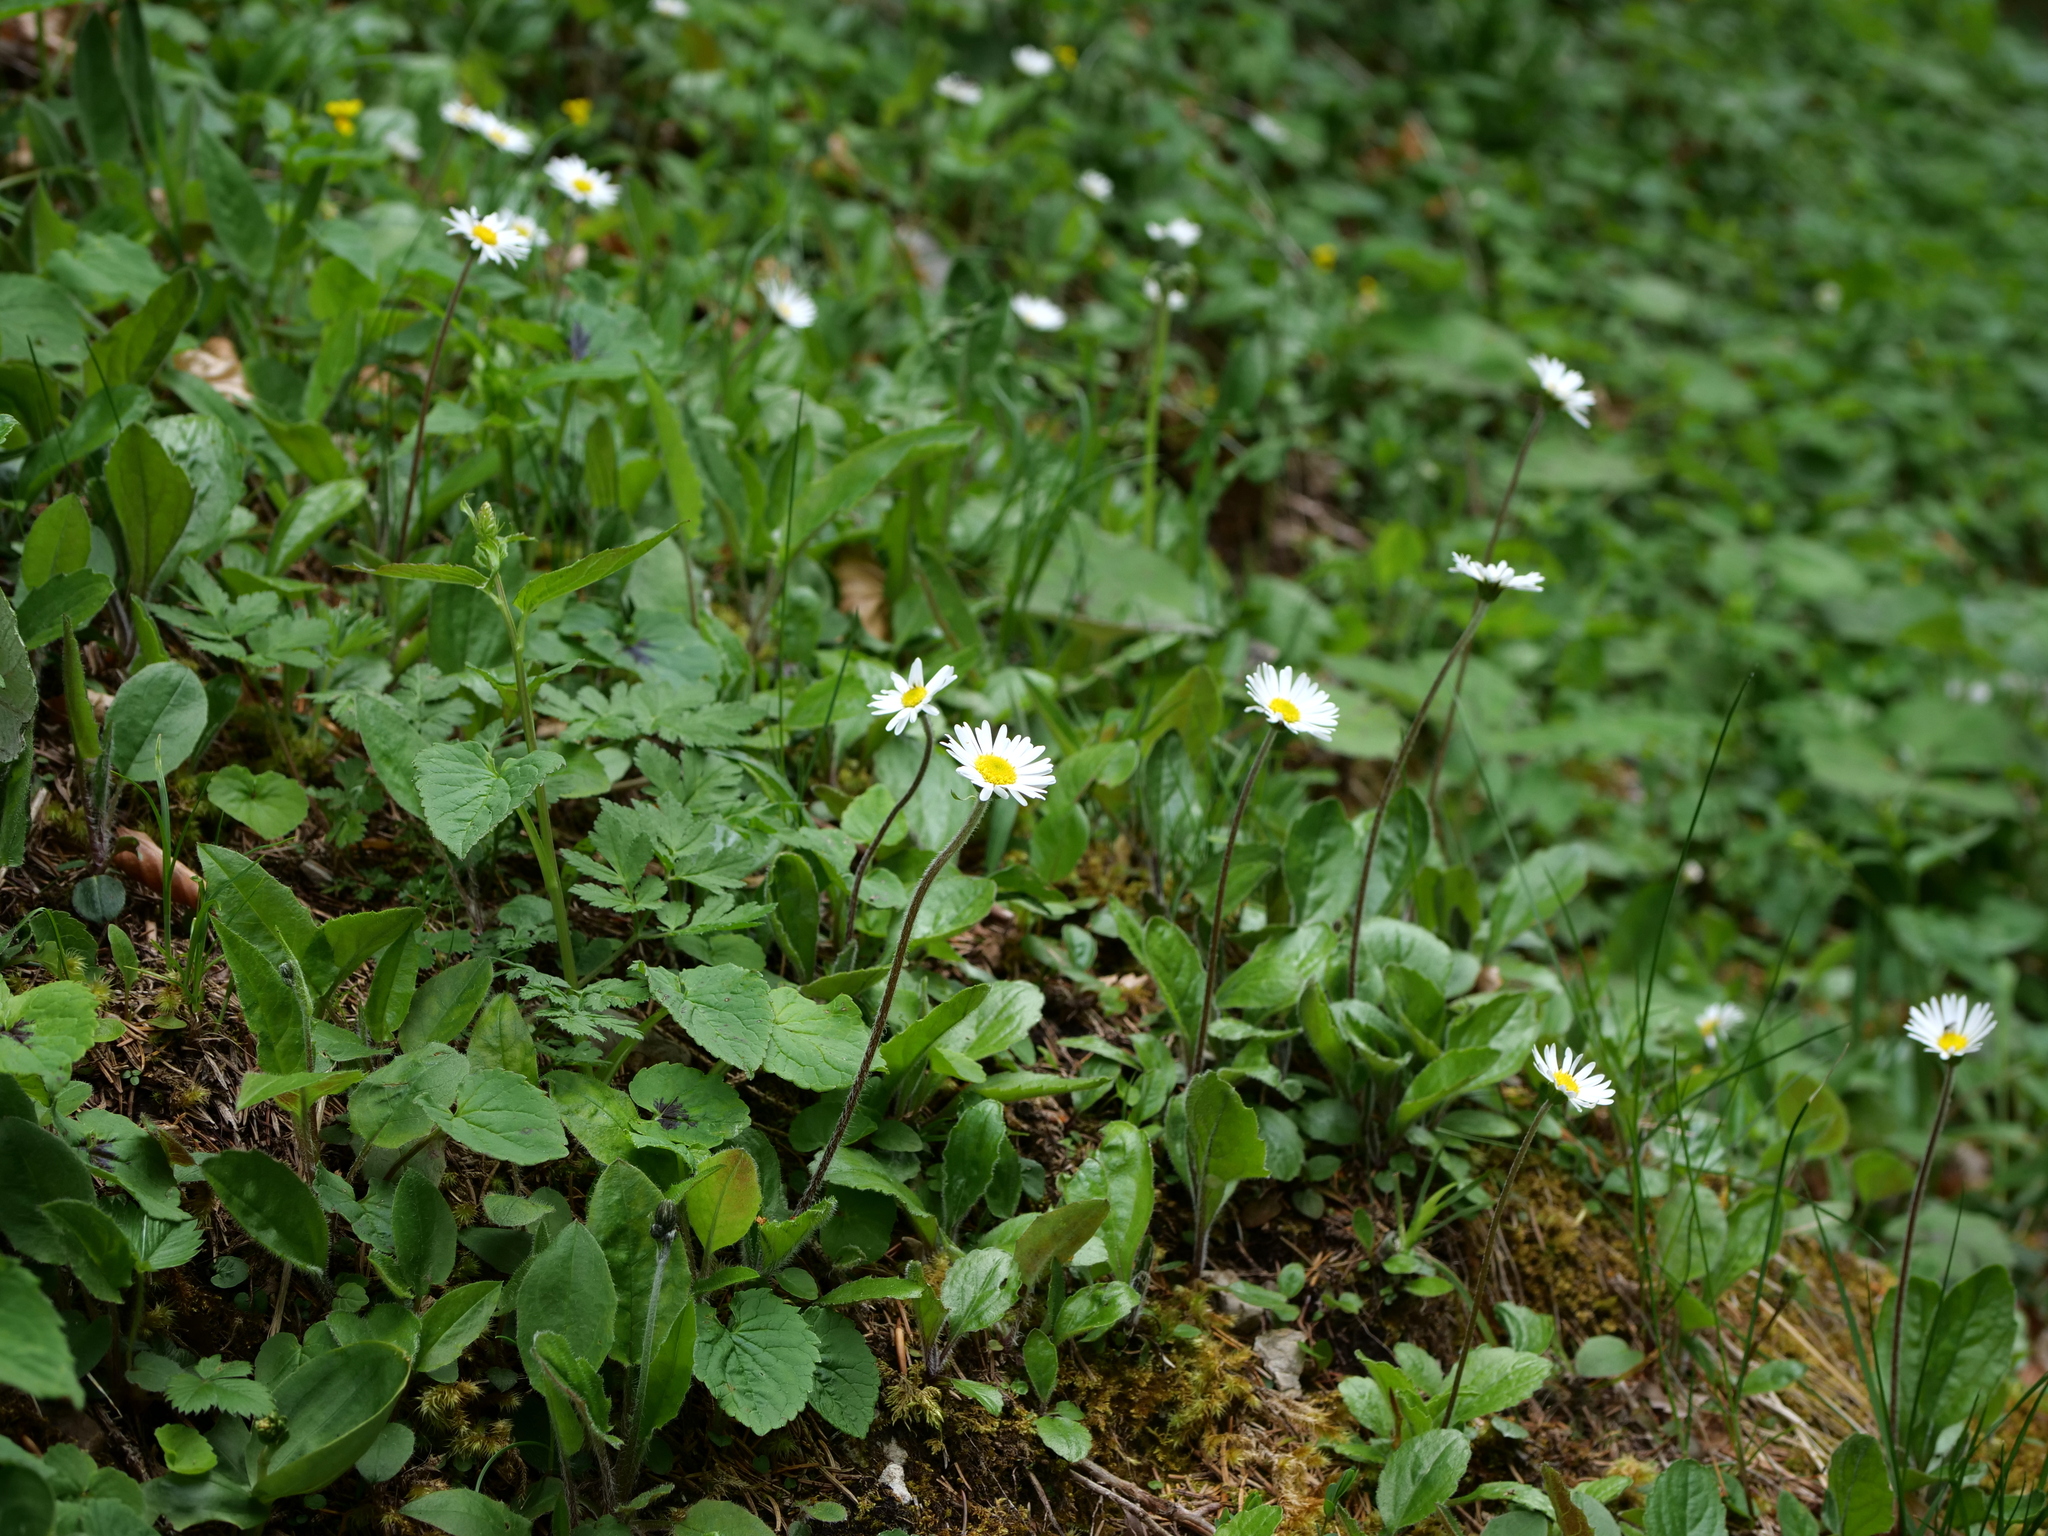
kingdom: Plantae
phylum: Tracheophyta
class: Magnoliopsida
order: Asterales
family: Asteraceae
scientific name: Asteraceae
